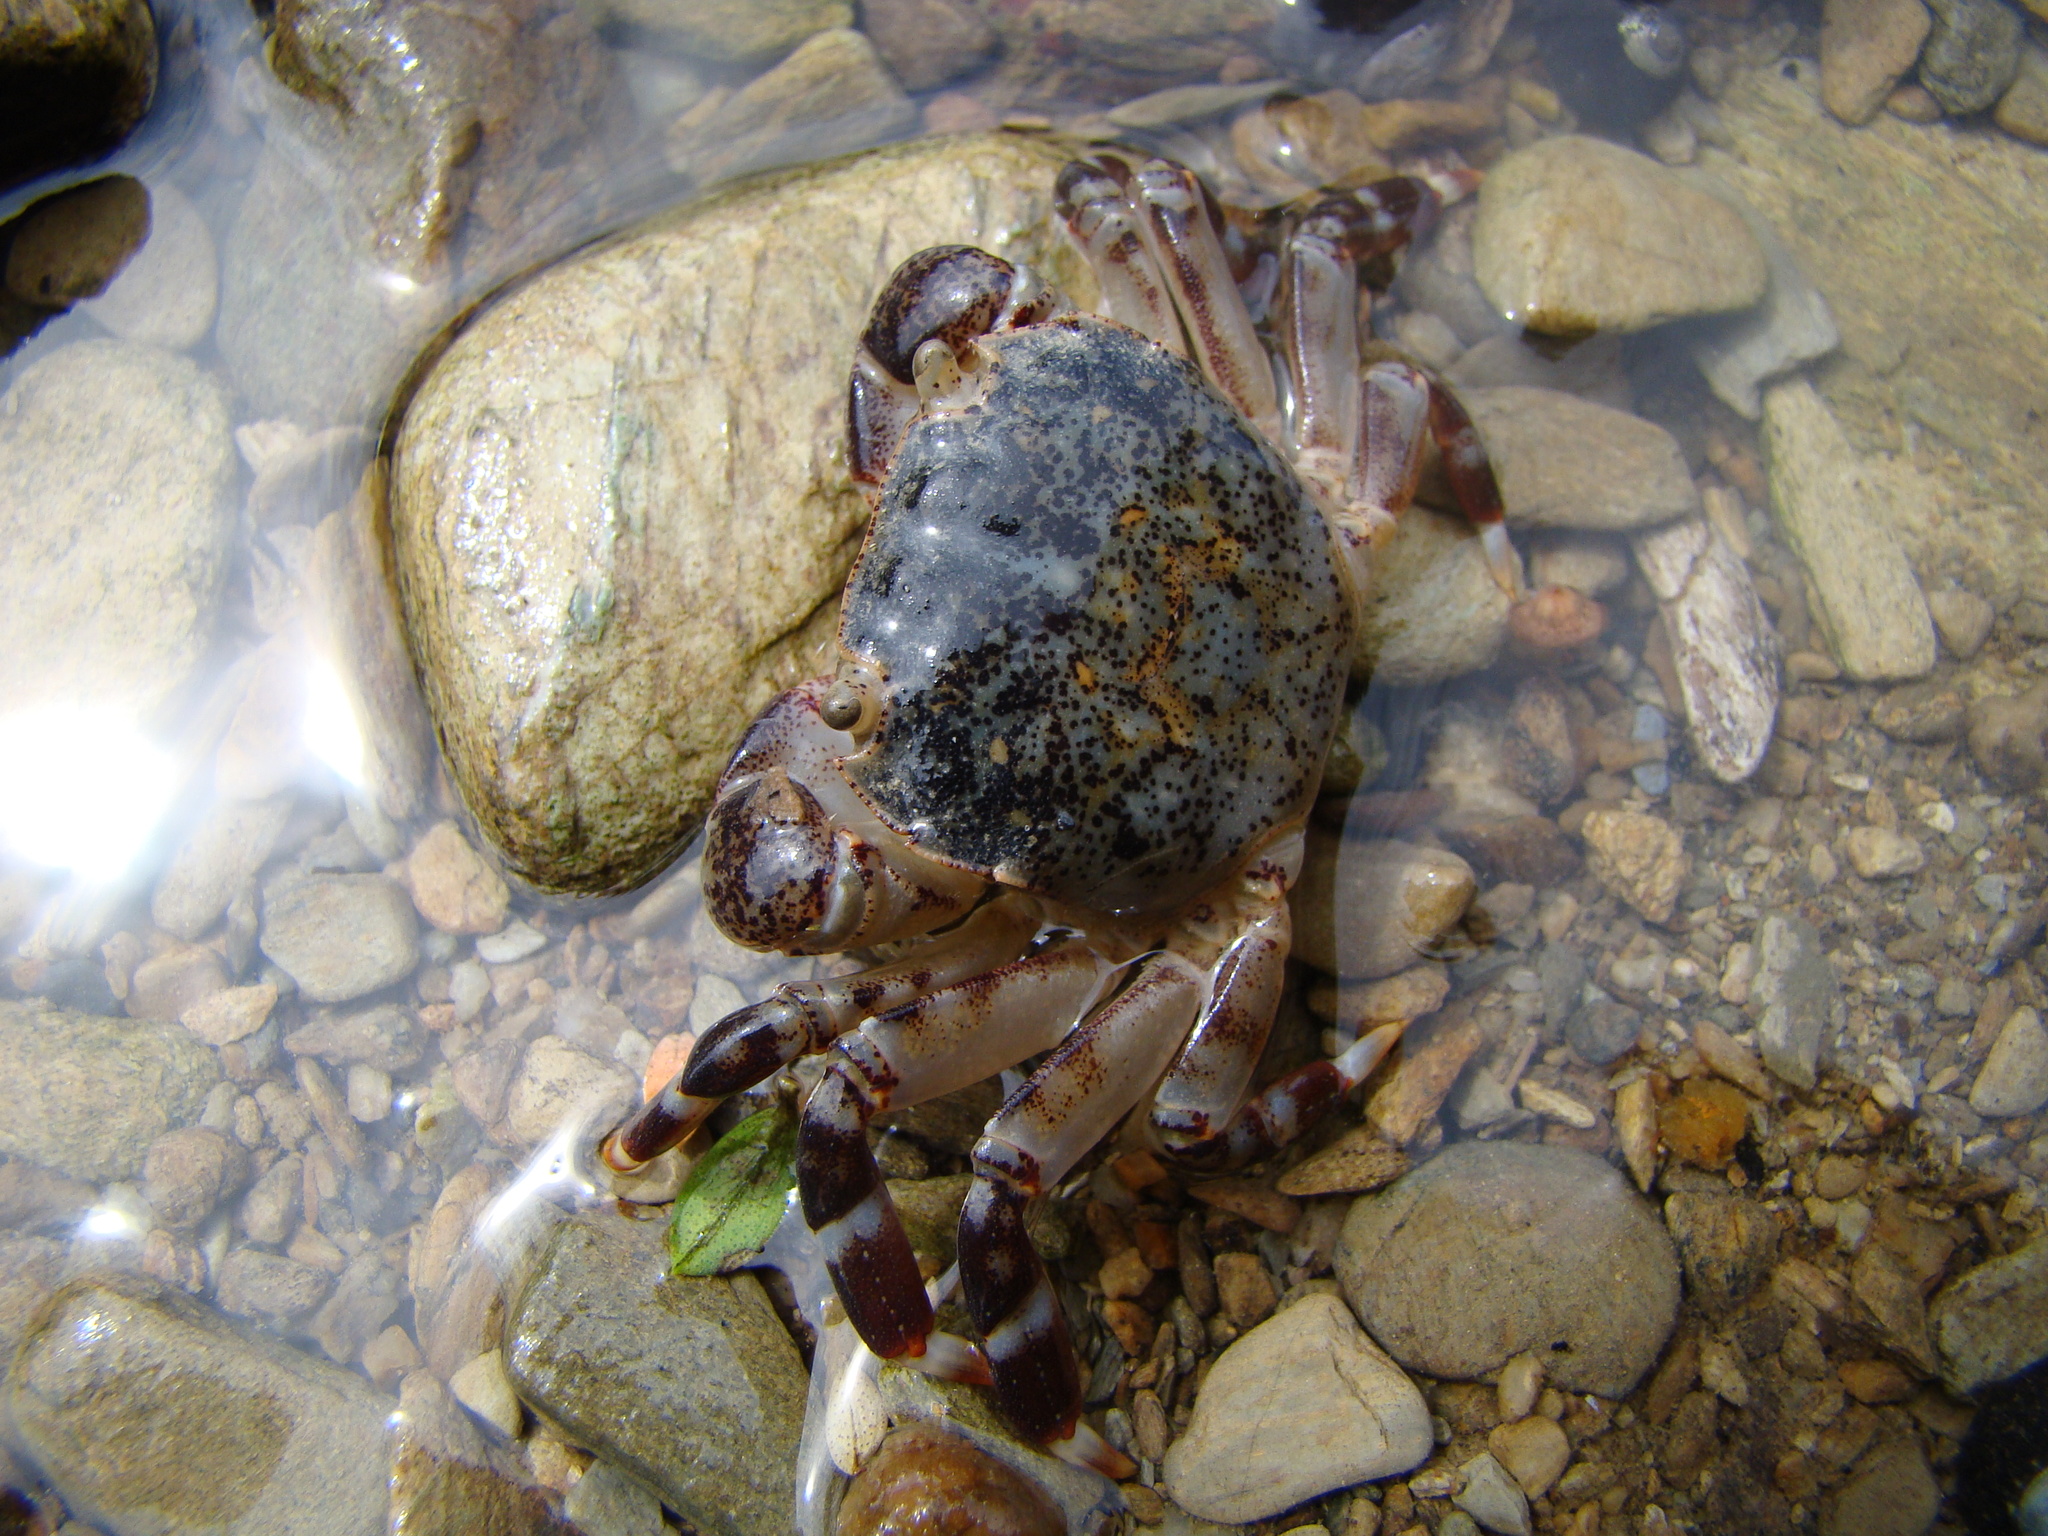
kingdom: Animalia
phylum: Arthropoda
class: Malacostraca
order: Decapoda
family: Varunidae
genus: Hemigrapsus
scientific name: Hemigrapsus sexdentatus
